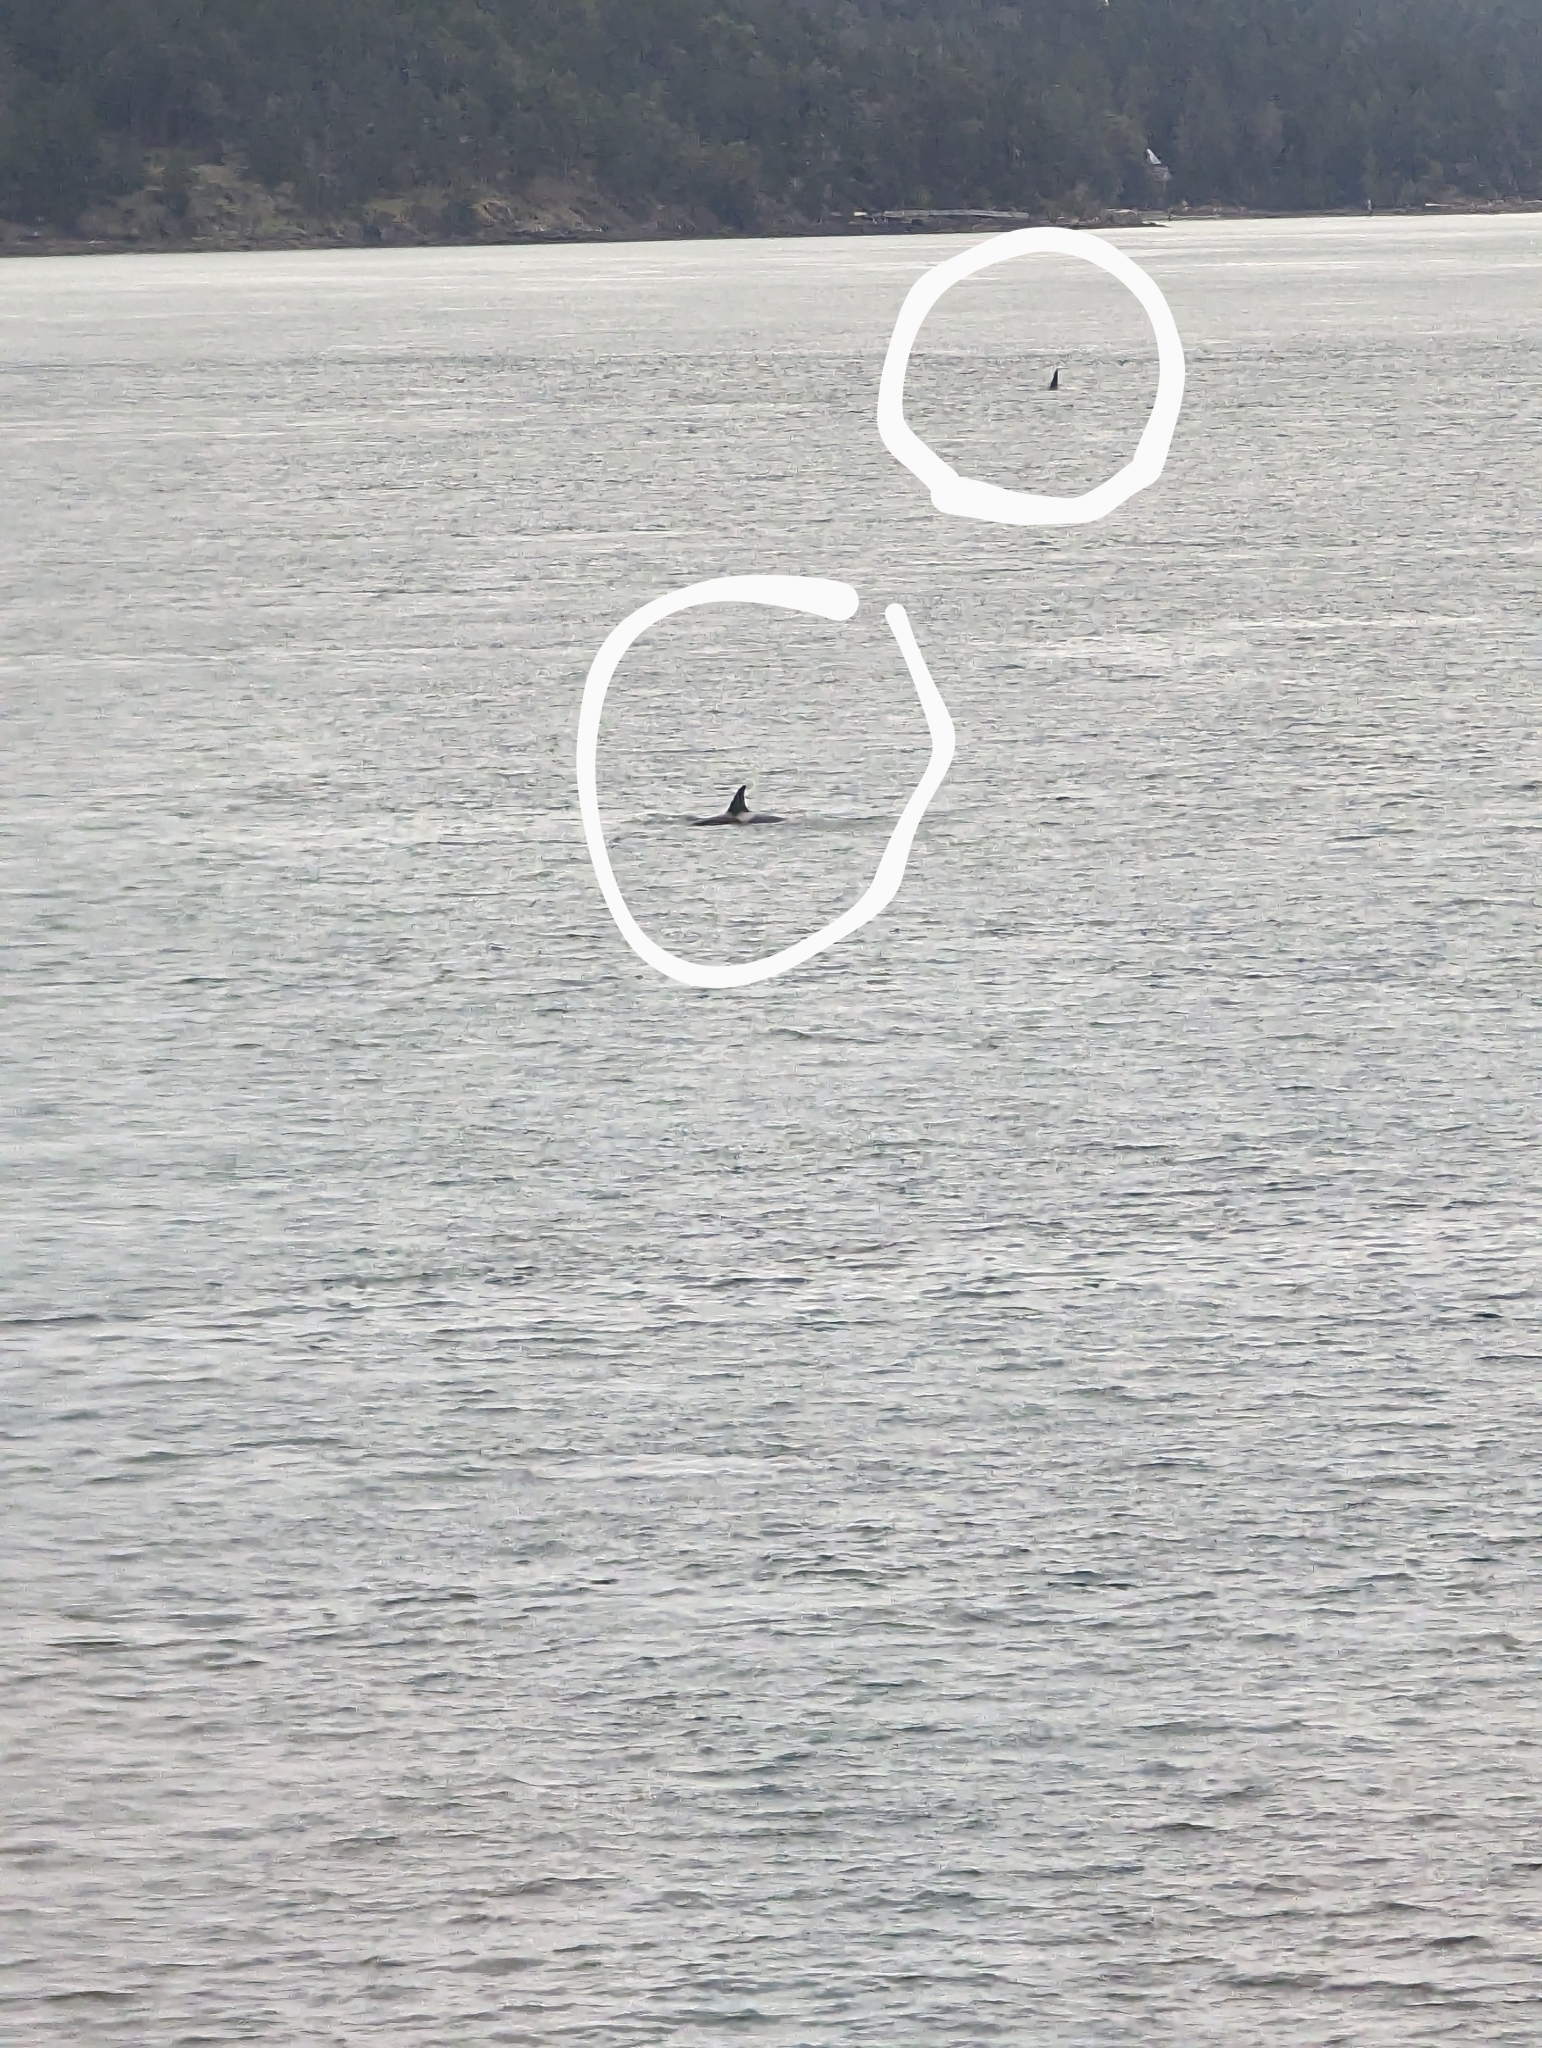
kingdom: Animalia
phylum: Chordata
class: Mammalia
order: Cetacea
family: Delphinidae
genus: Orcinus
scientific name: Orcinus orca
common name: Killer whale
